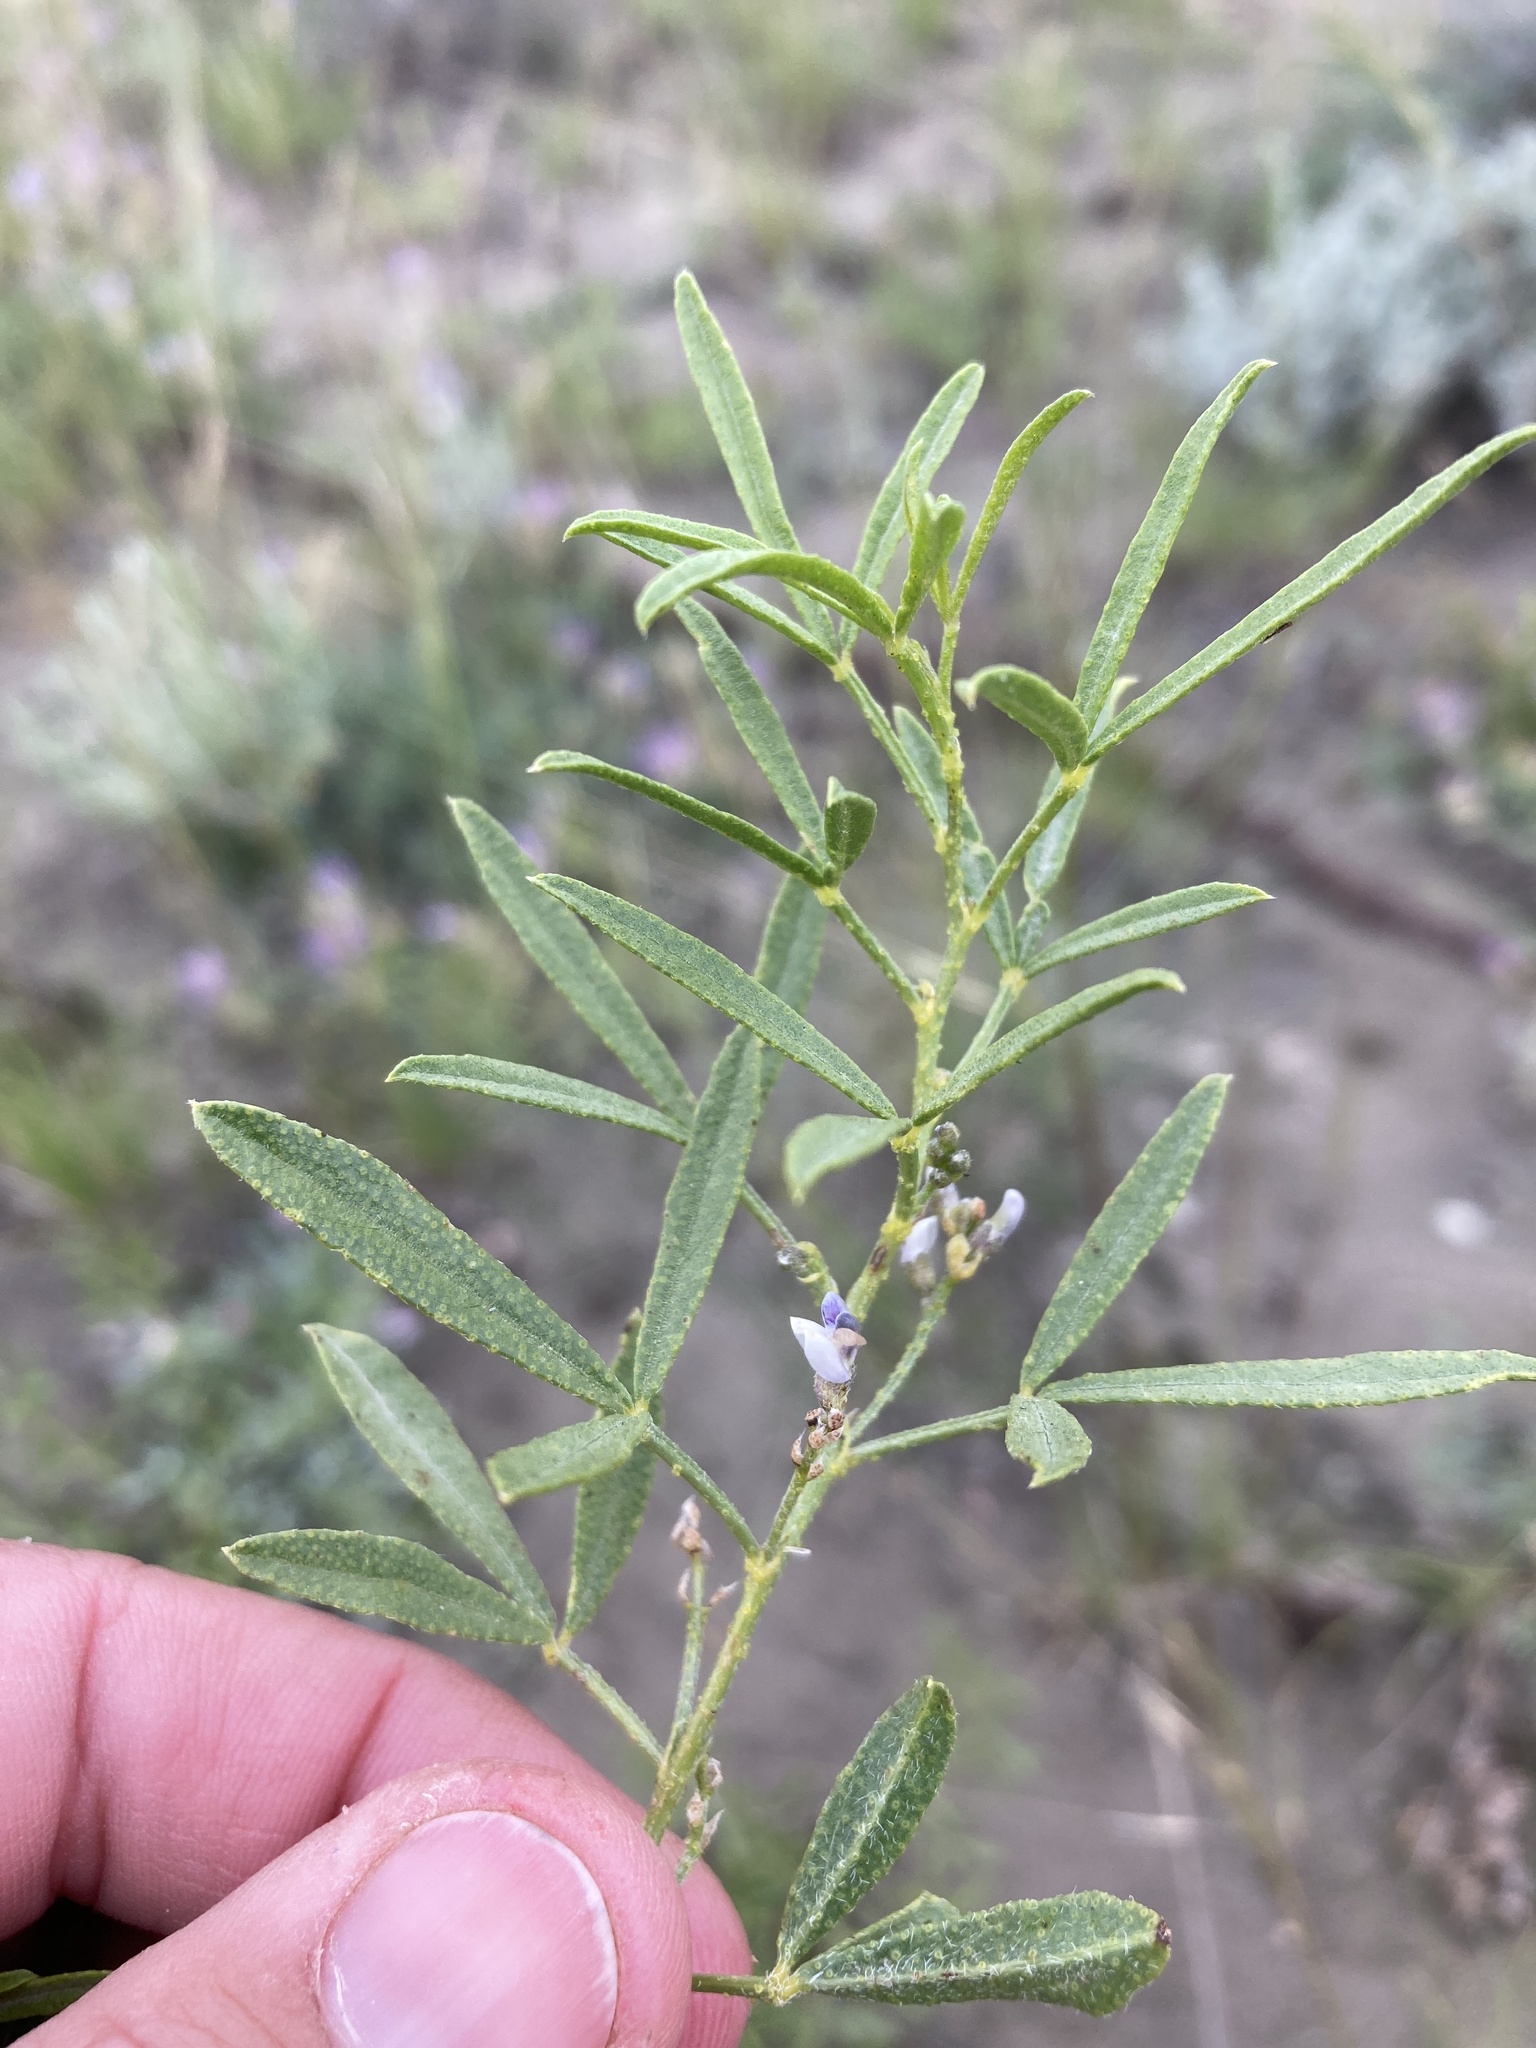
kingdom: Plantae
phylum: Tracheophyta
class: Magnoliopsida
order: Fabales
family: Fabaceae
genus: Ladeania
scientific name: Ladeania lanceolata
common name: Dune scurf-pea
